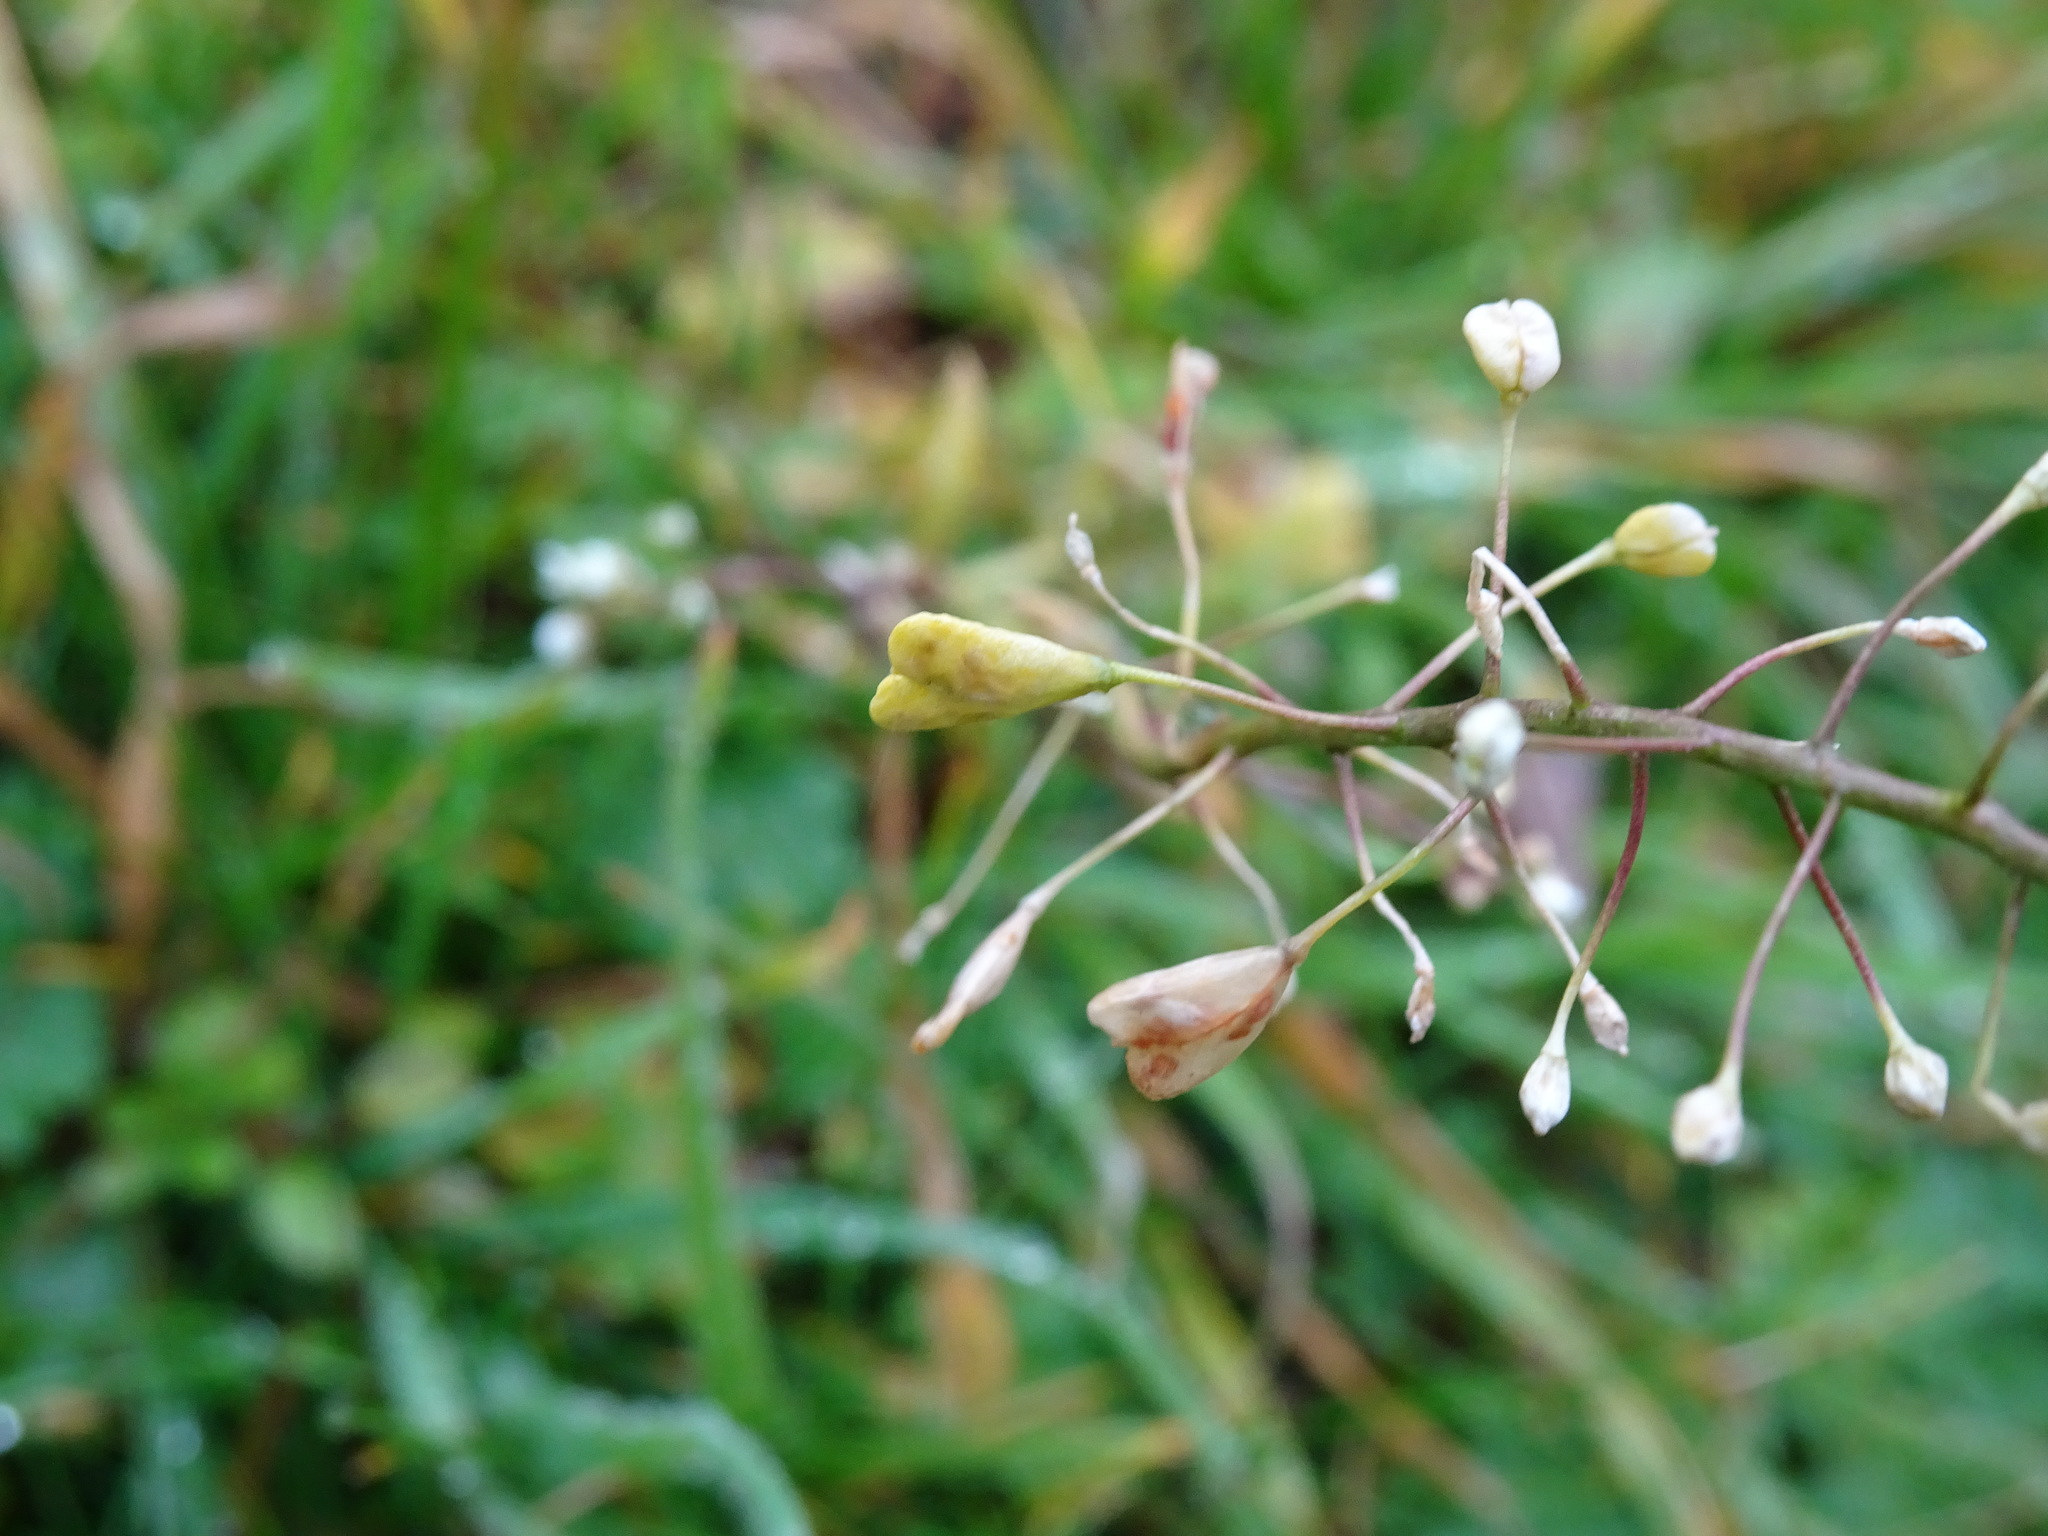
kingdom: Plantae
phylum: Tracheophyta
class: Magnoliopsida
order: Brassicales
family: Brassicaceae
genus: Capsella
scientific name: Capsella bursa-pastoris
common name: Shepherd's purse
